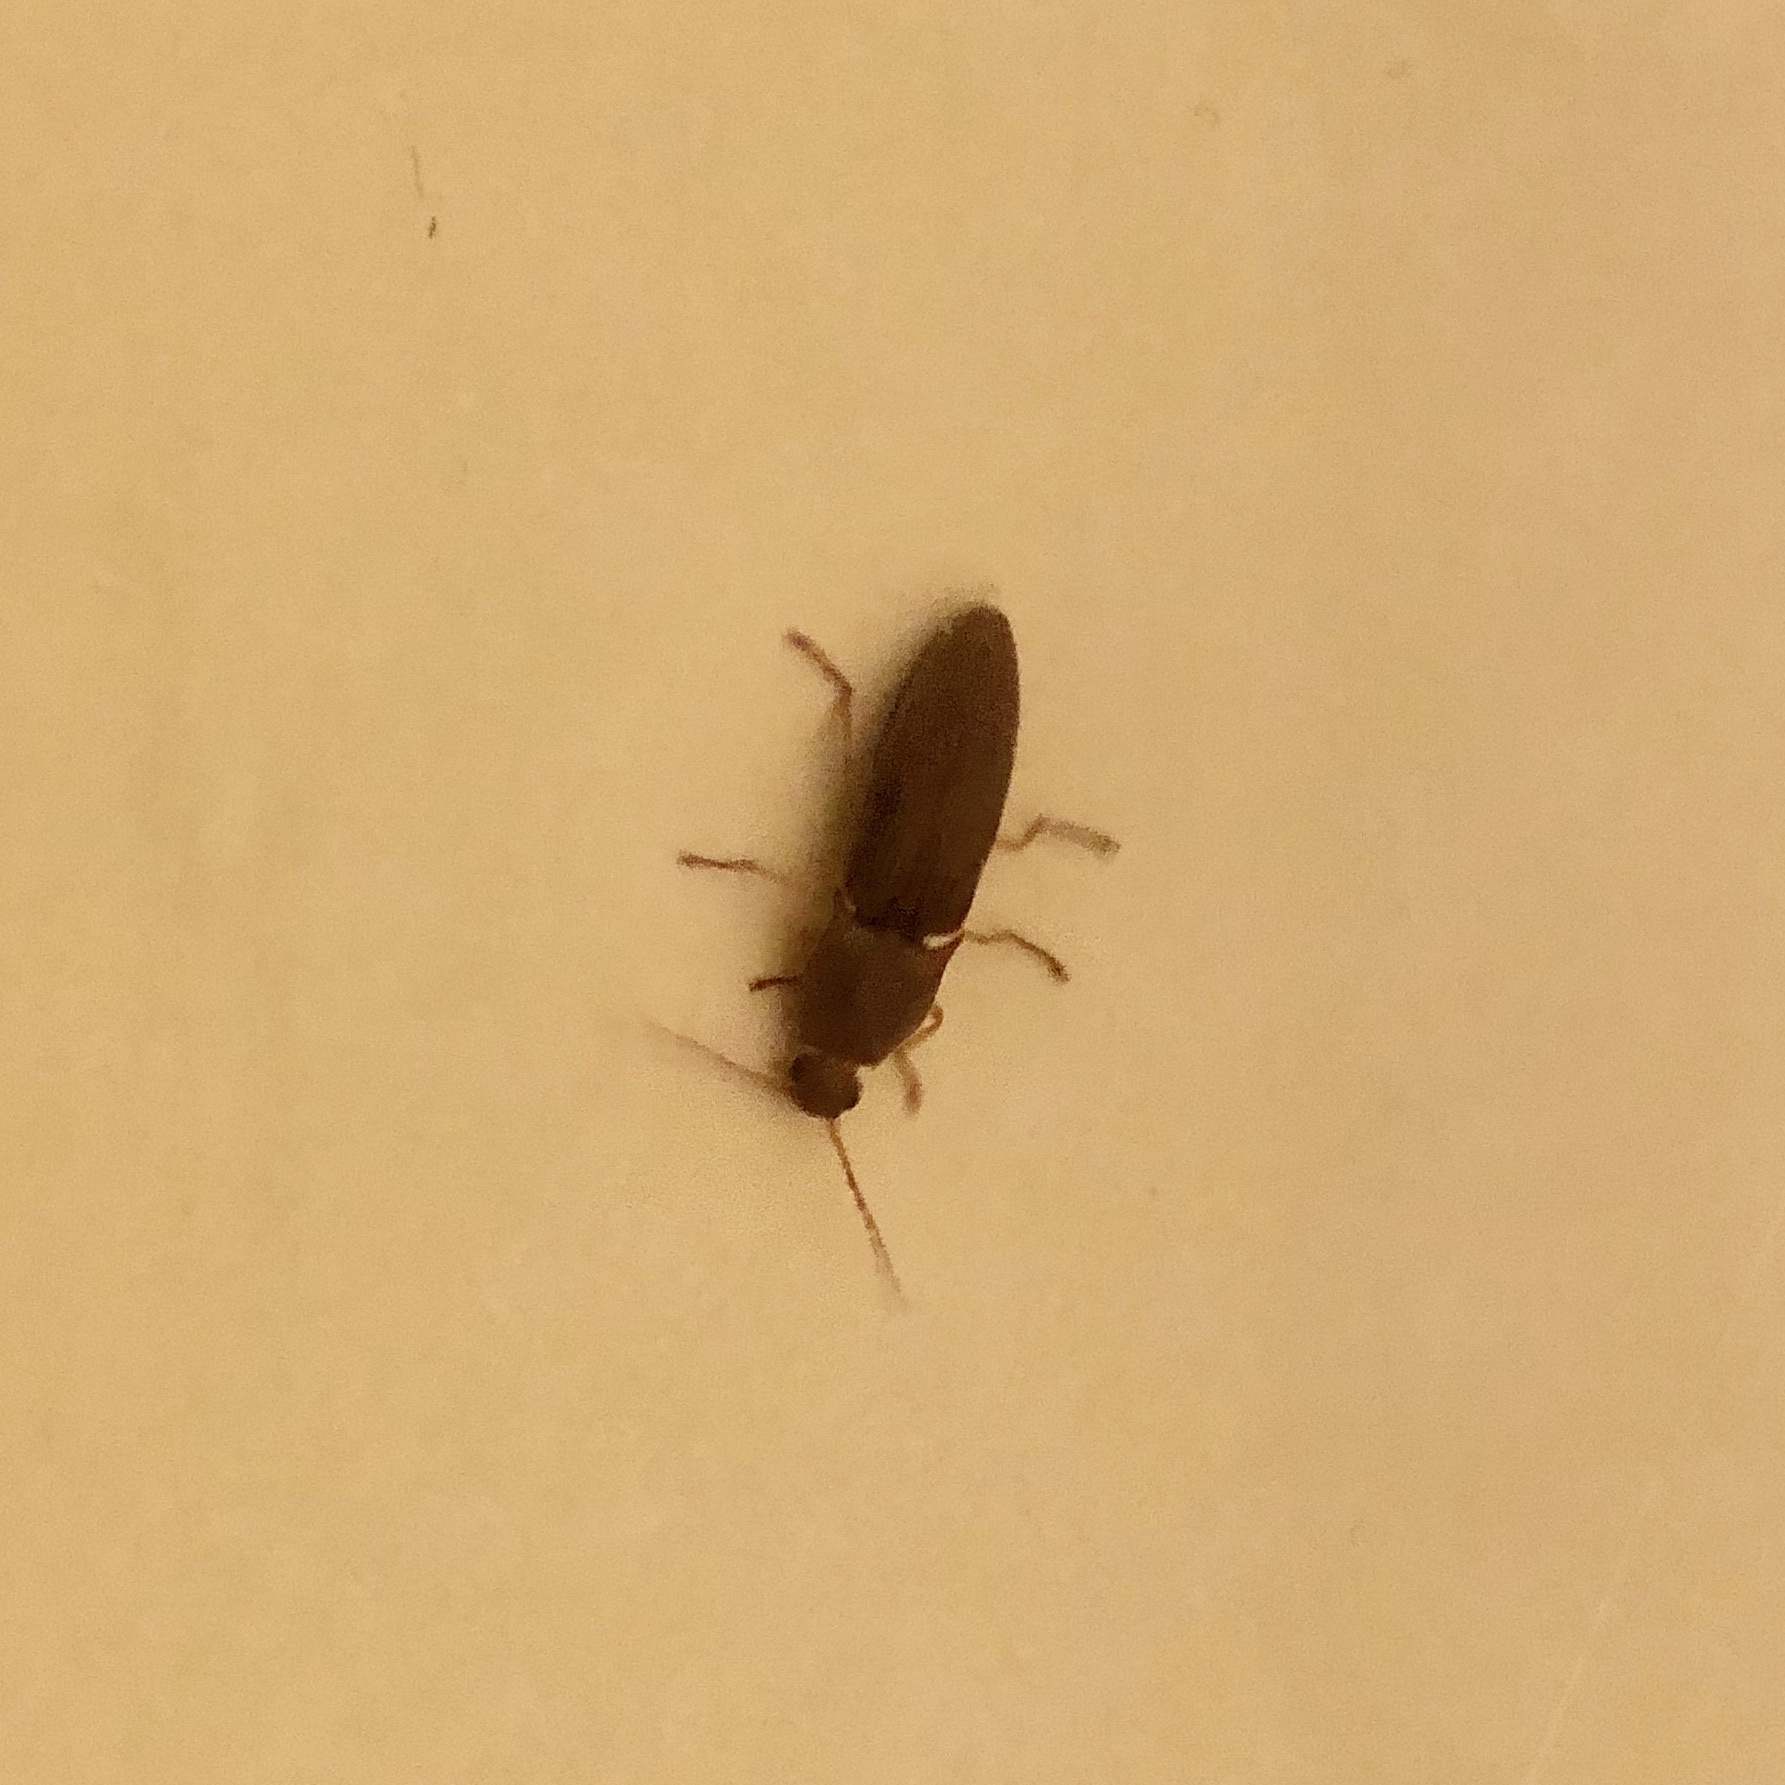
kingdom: Animalia
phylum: Arthropoda
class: Insecta
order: Coleoptera
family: Elateridae
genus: Monocrepidius
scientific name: Monocrepidius lividus
